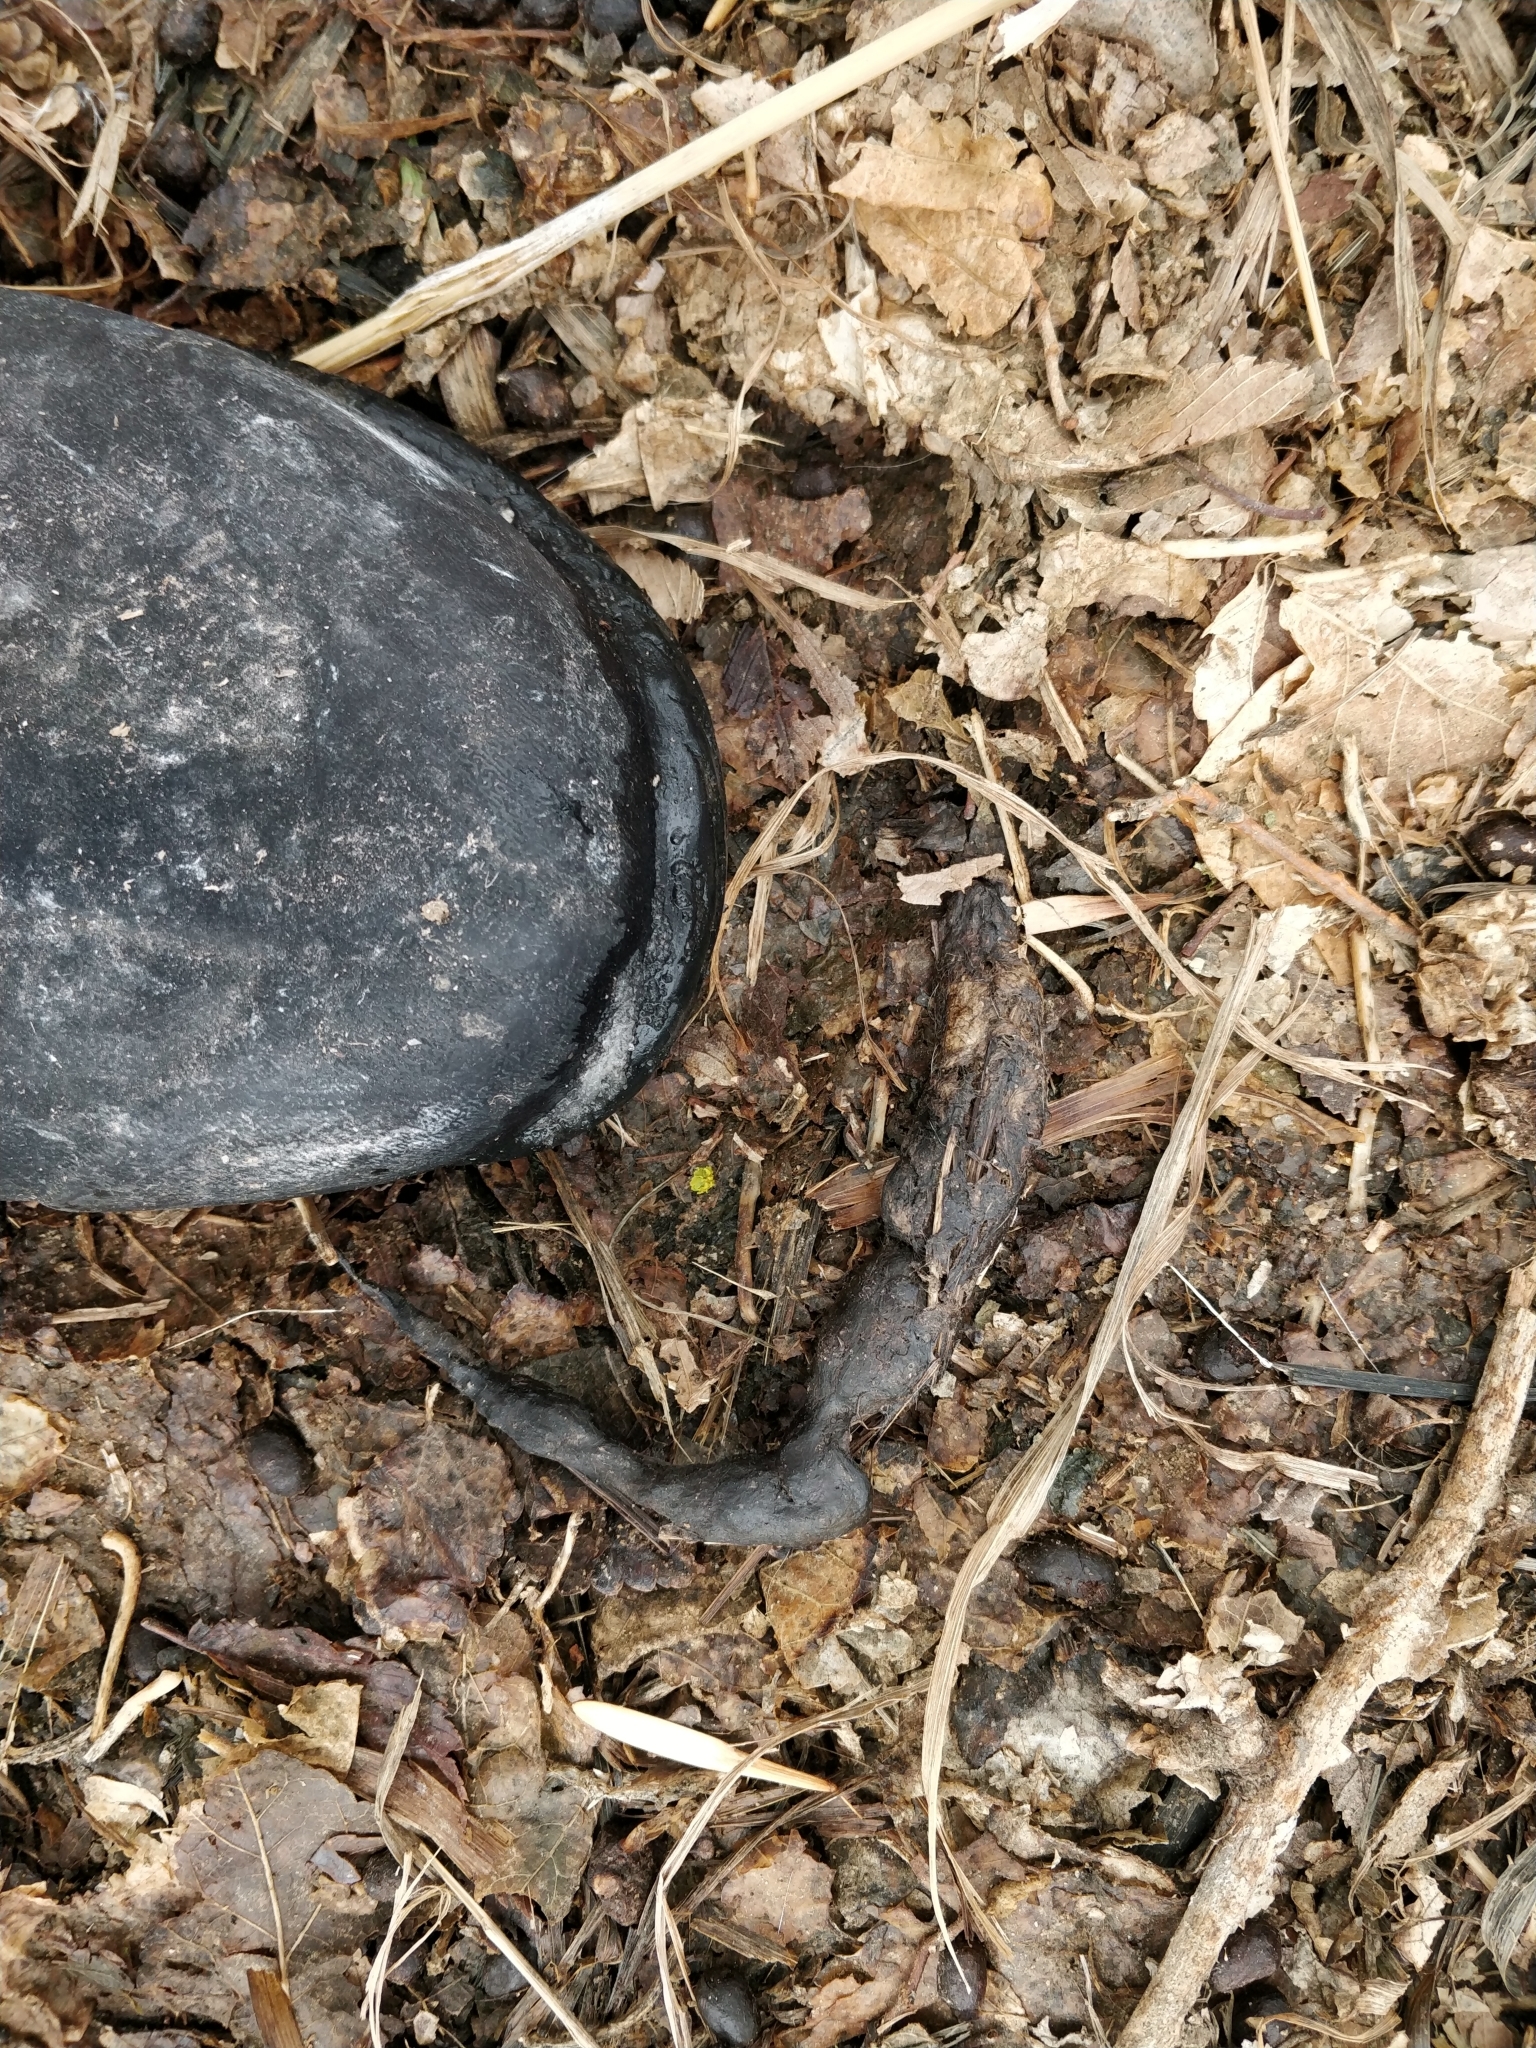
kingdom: Animalia
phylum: Chordata
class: Mammalia
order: Carnivora
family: Canidae
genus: Vulpes
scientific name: Vulpes vulpes
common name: Red fox
